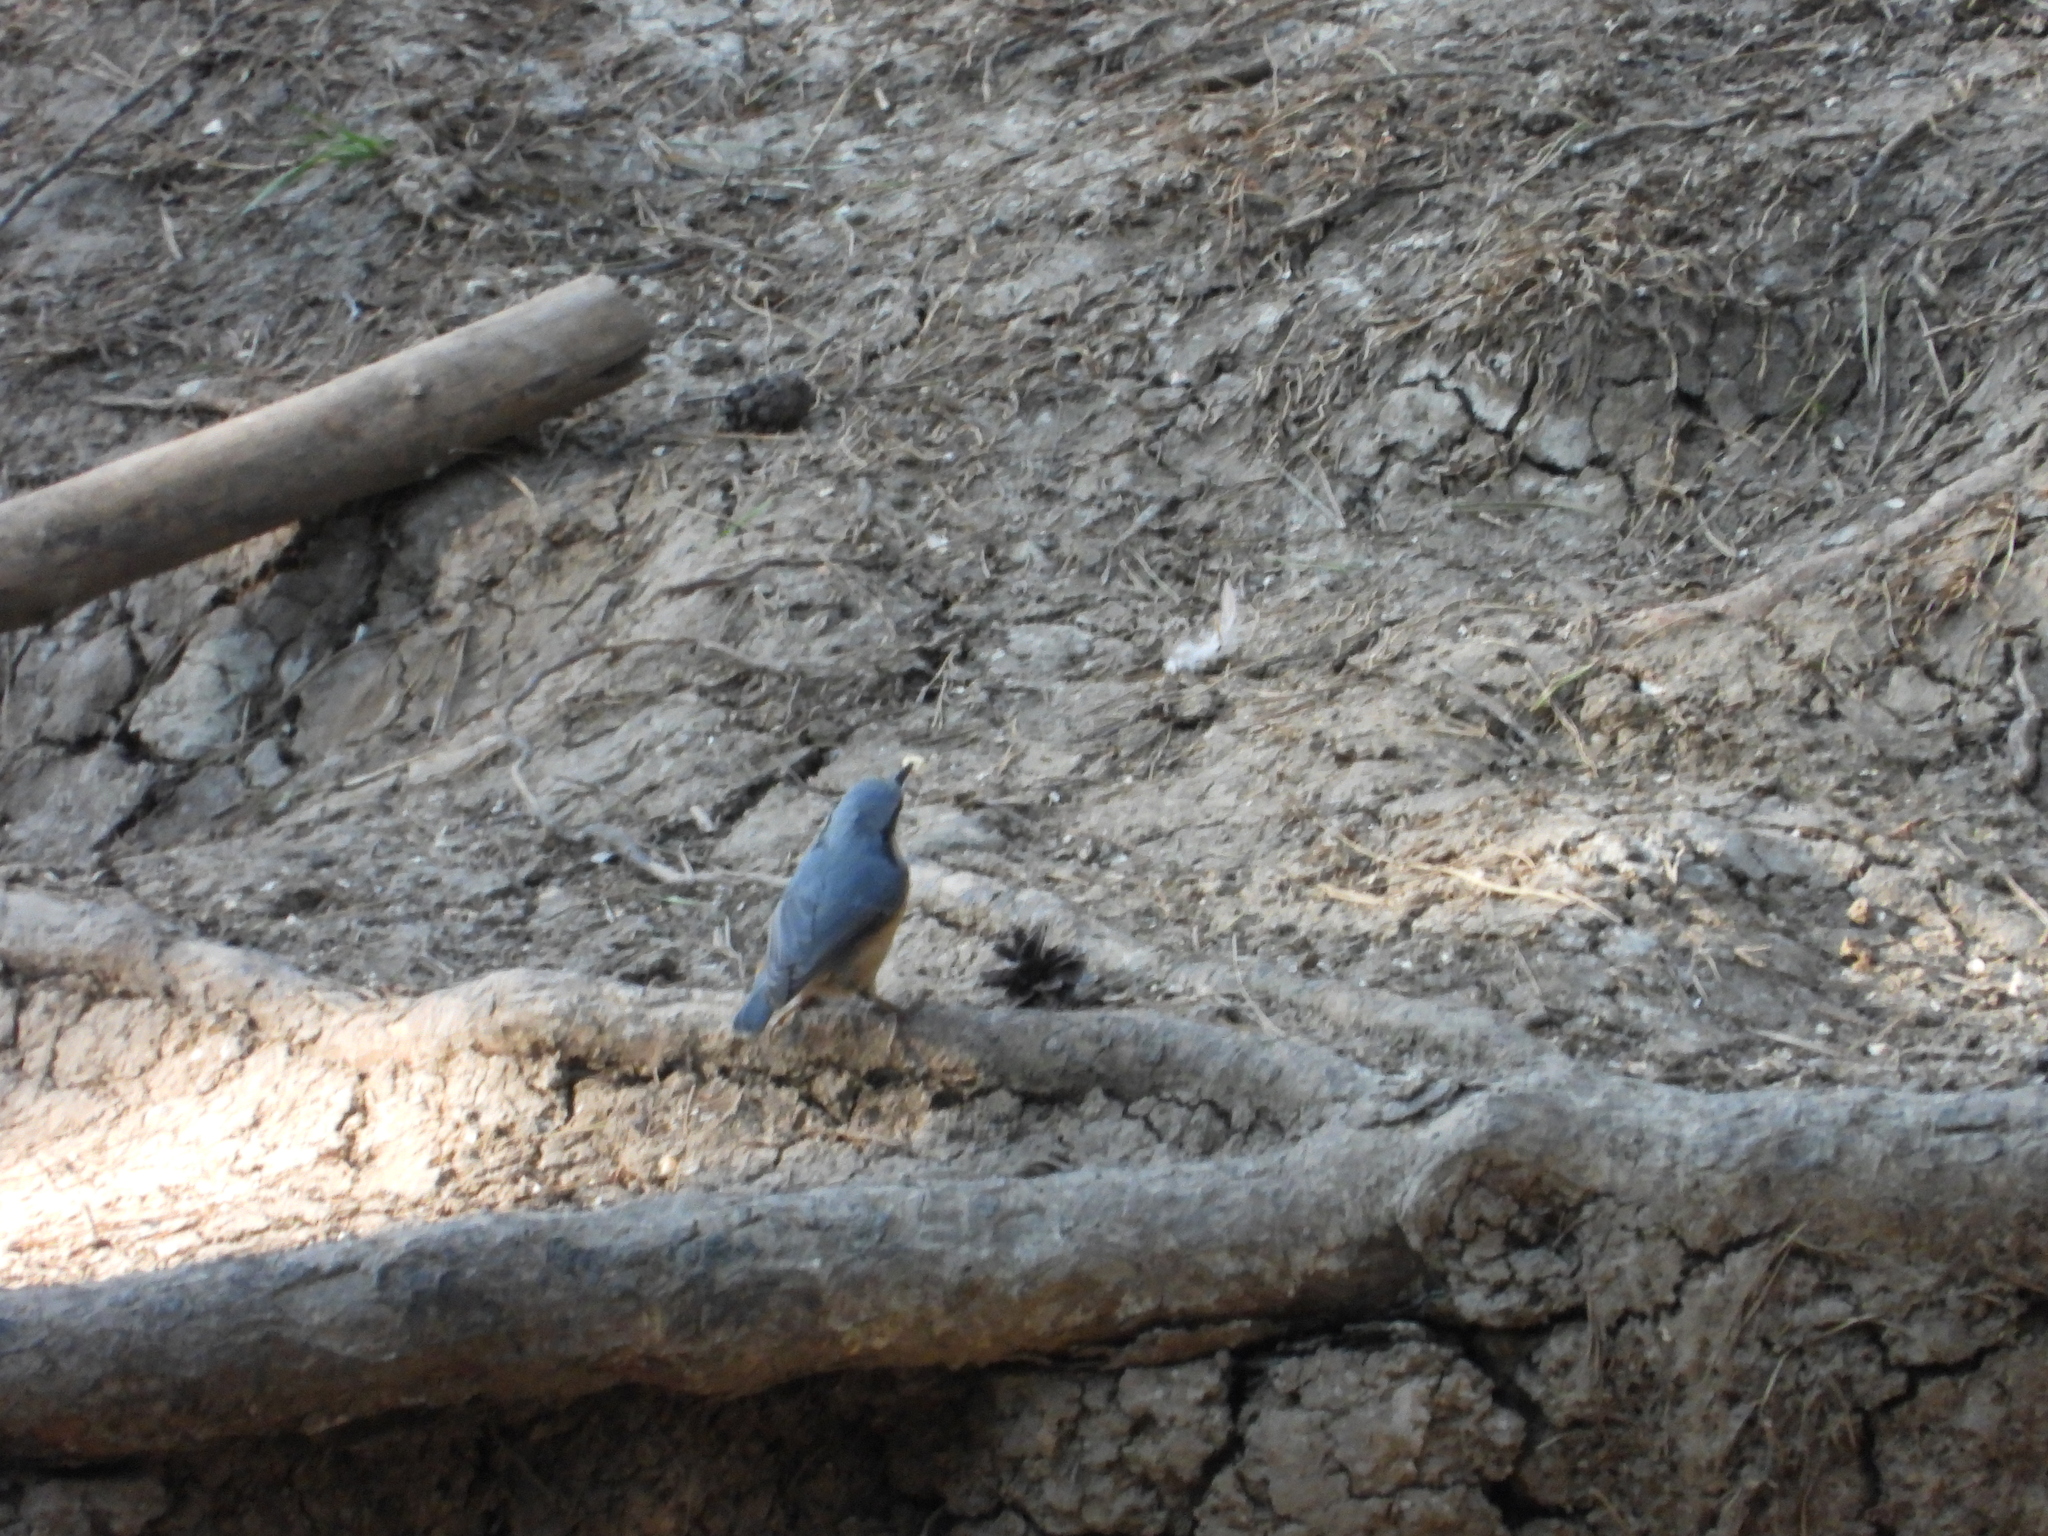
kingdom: Animalia
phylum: Chordata
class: Aves
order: Passeriformes
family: Sittidae
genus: Sitta
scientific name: Sitta europaea
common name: Eurasian nuthatch
